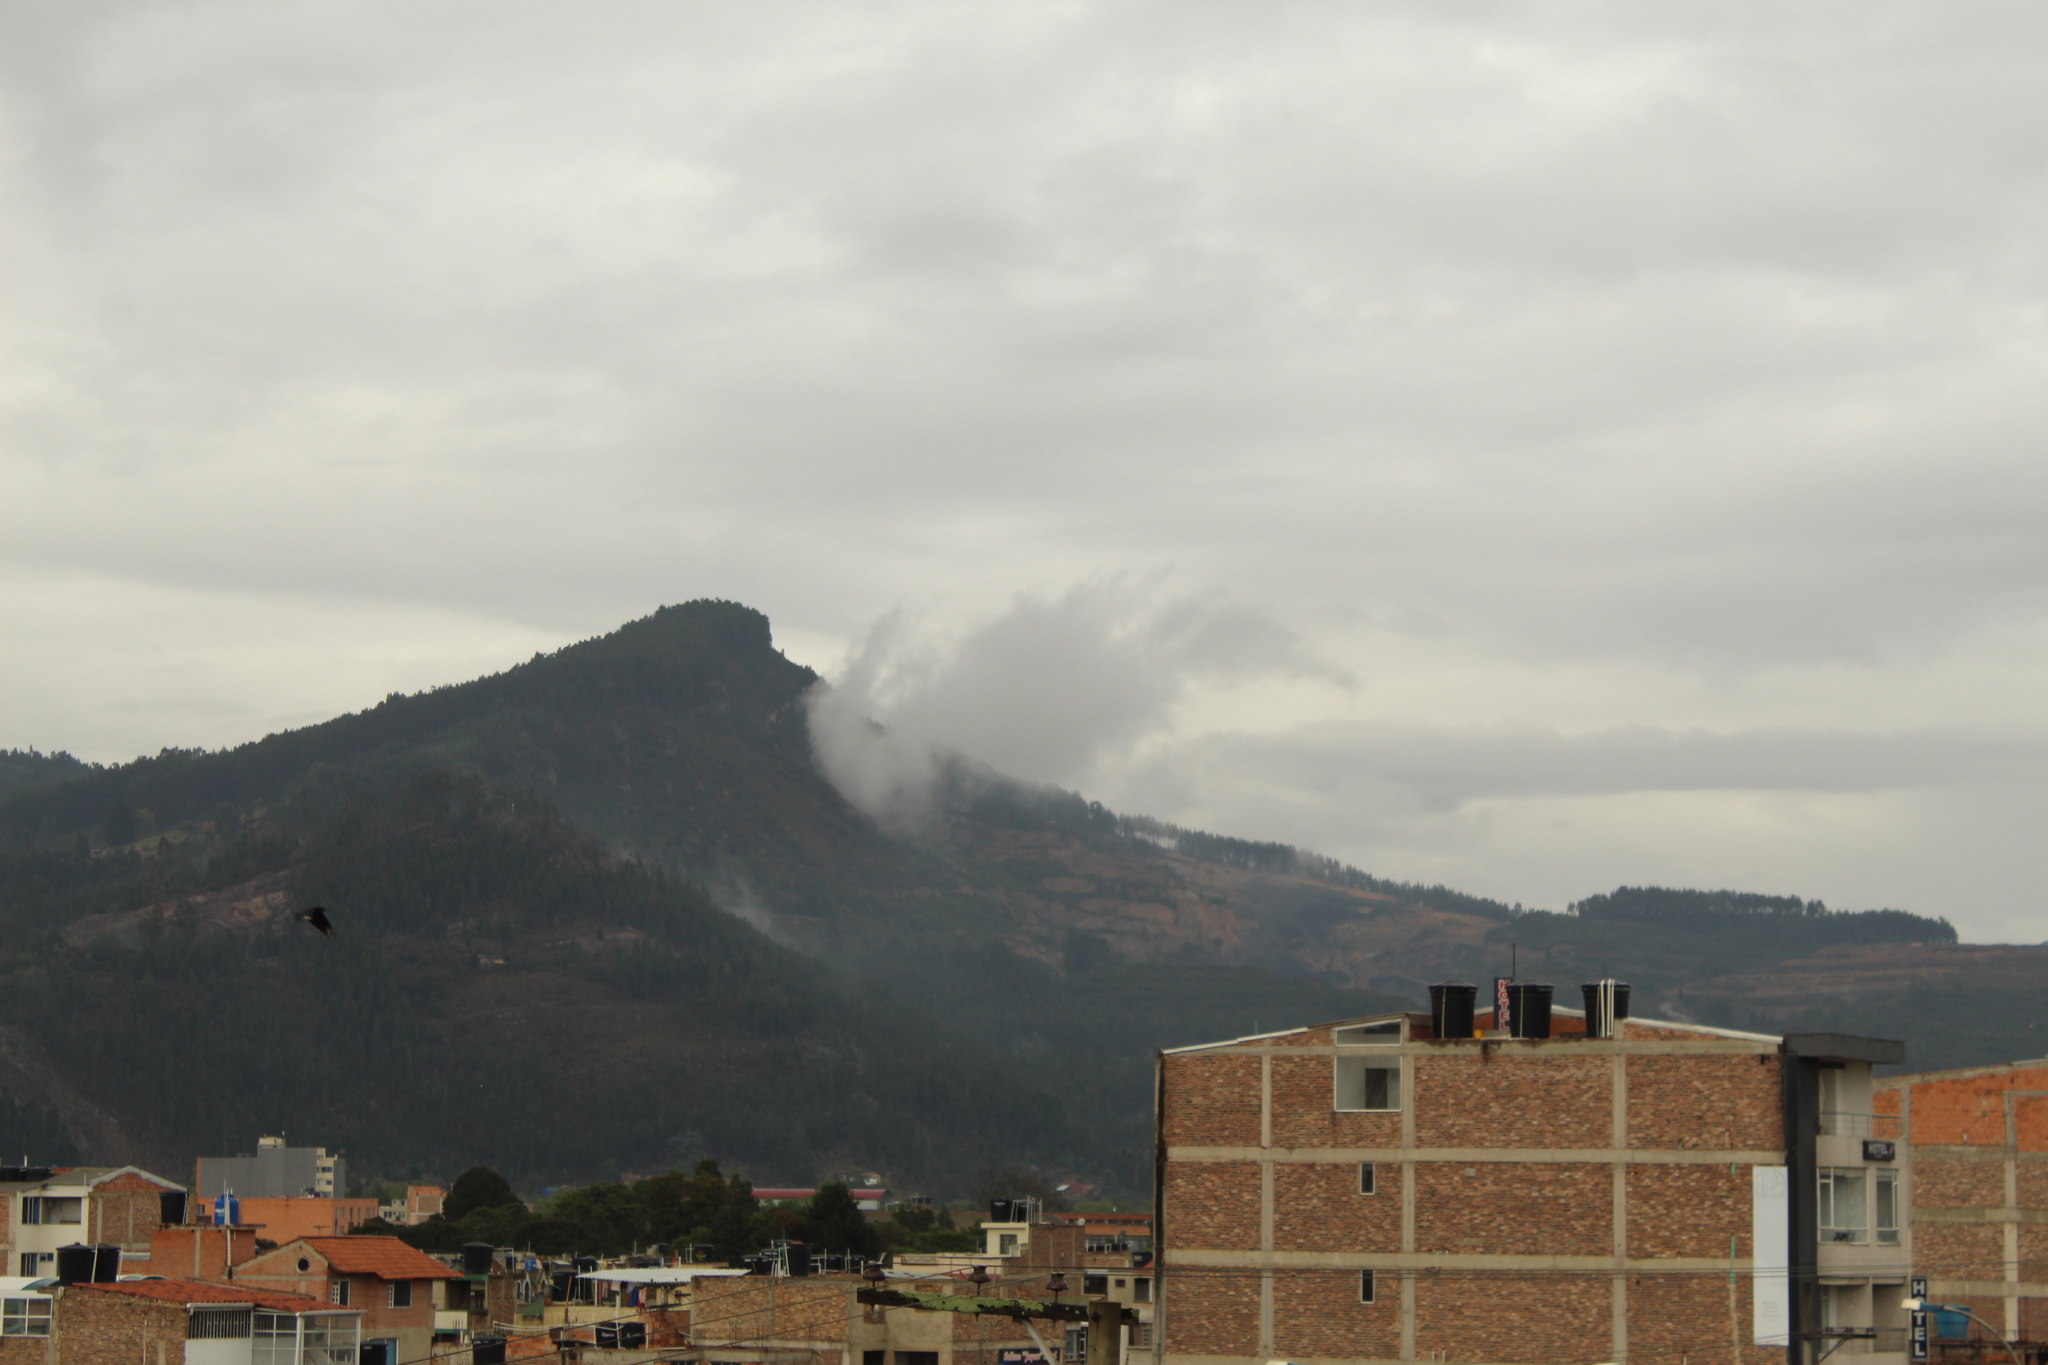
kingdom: Animalia
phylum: Chordata
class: Aves
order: Accipitriformes
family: Cathartidae
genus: Coragyps
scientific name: Coragyps atratus
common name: Black vulture
